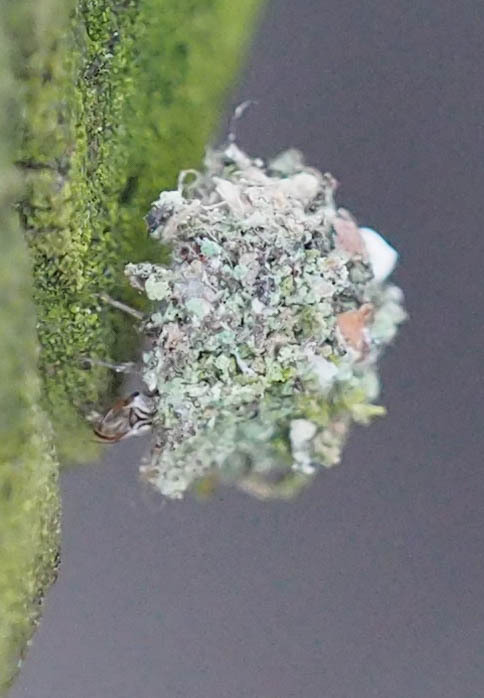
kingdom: Animalia
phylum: Arthropoda
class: Insecta
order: Neuroptera
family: Chrysopidae
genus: Leucochrysa
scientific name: Leucochrysa pavida
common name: Lichen-carrying green lacewing
